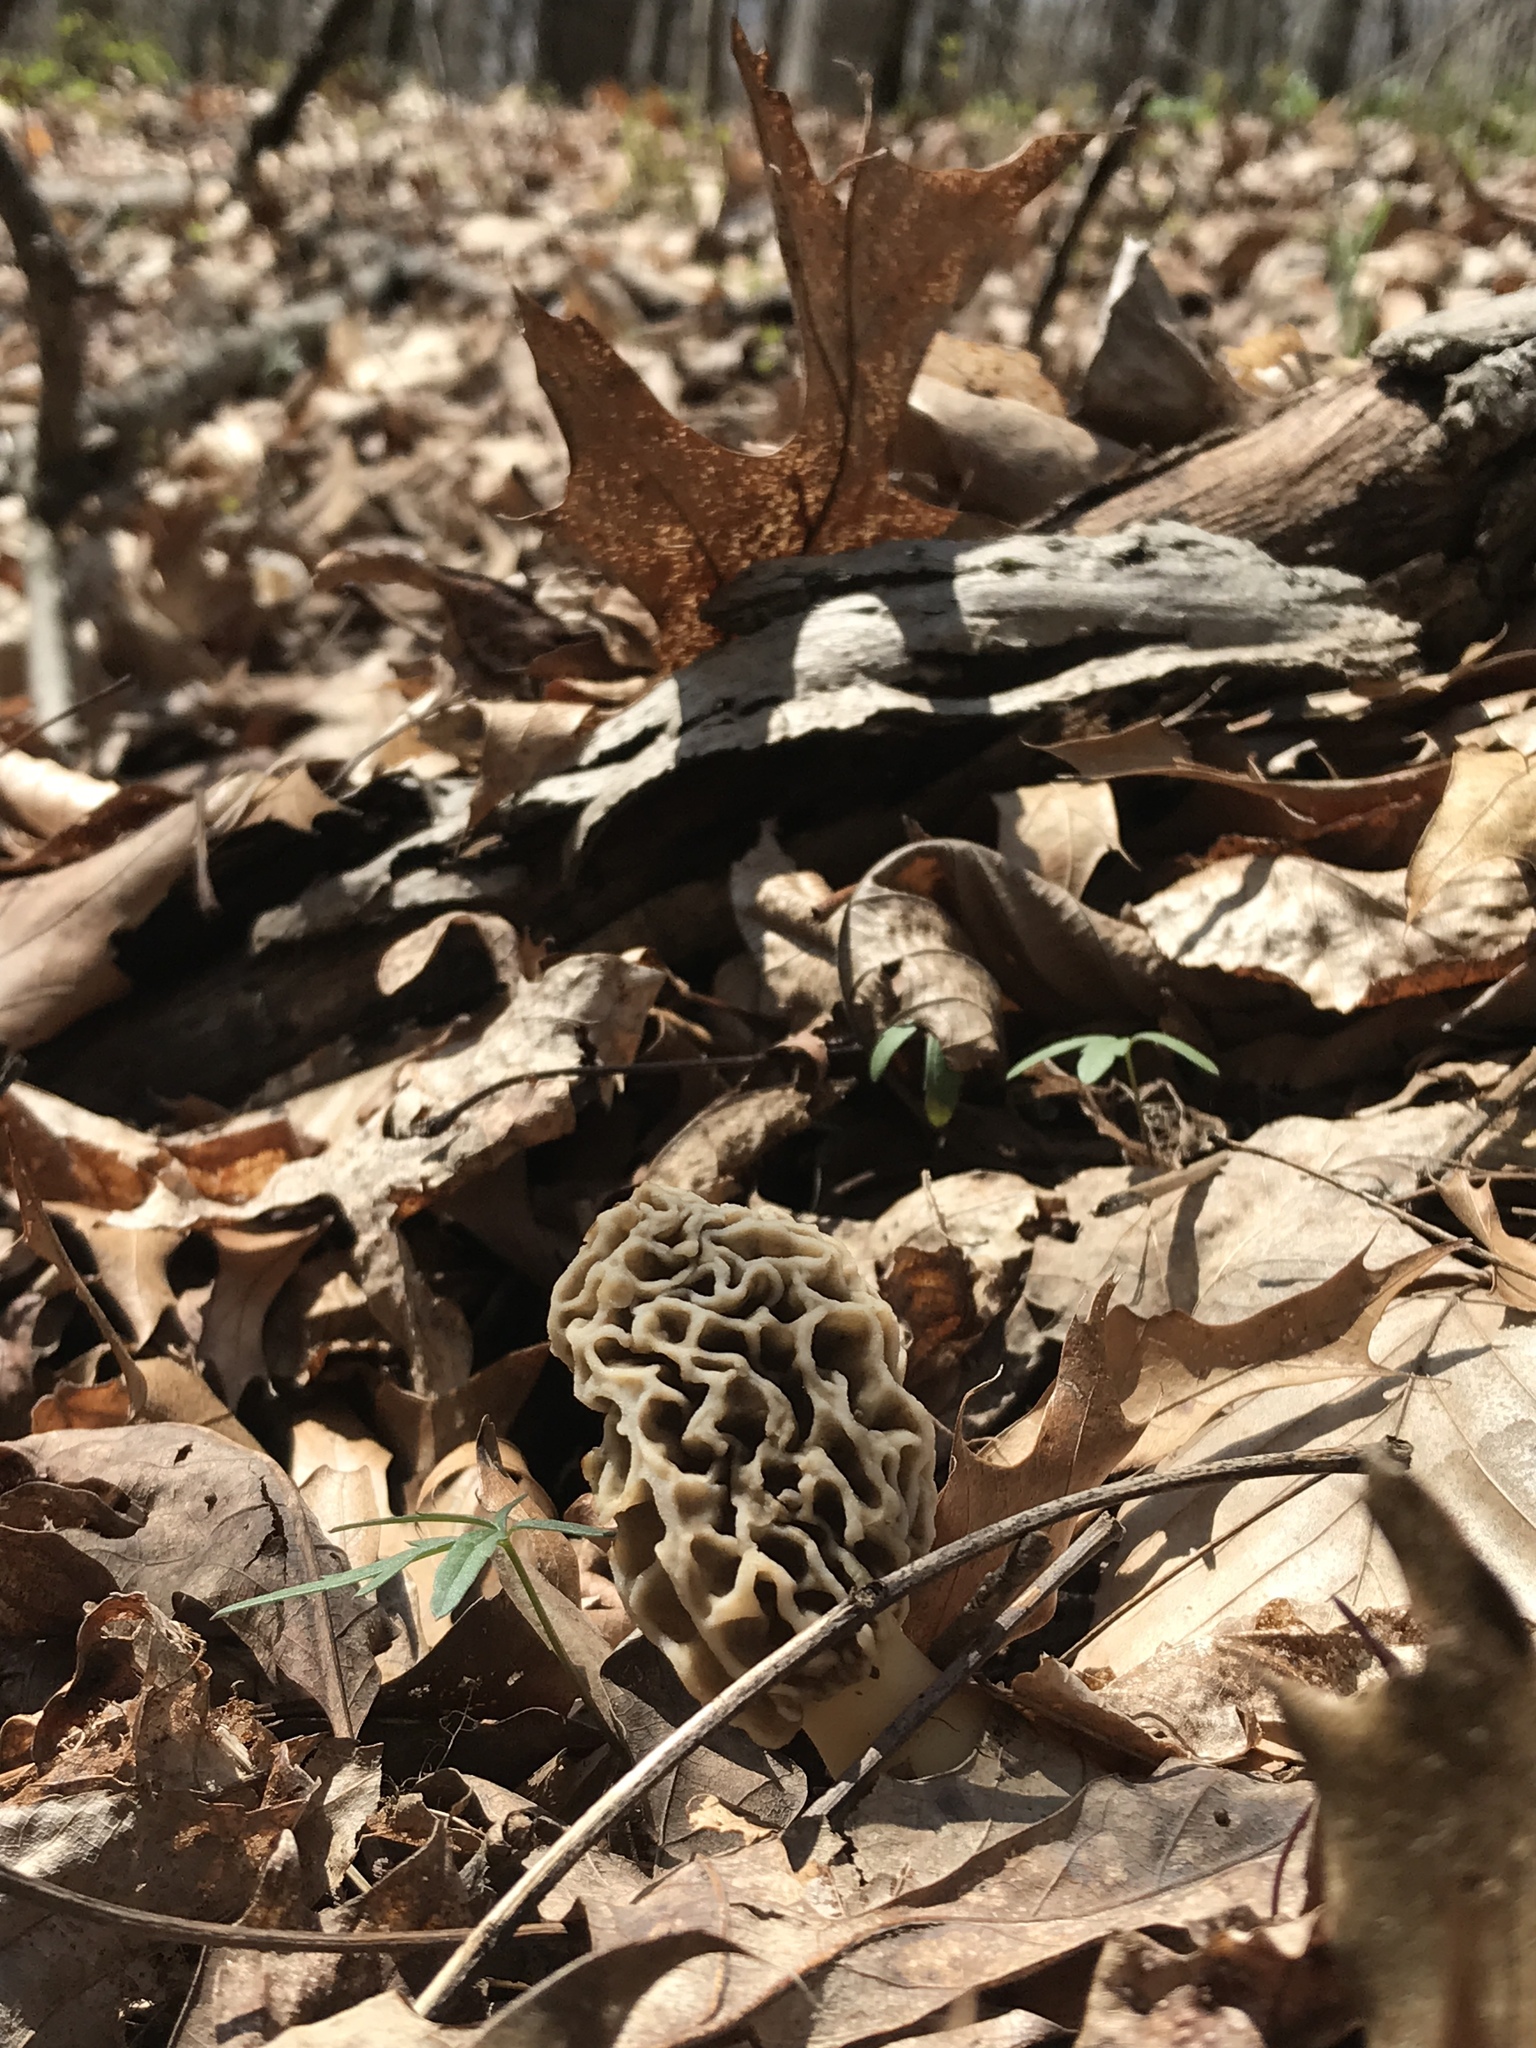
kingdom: Fungi
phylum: Ascomycota
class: Pezizomycetes
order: Pezizales
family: Morchellaceae
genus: Morchella
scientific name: Morchella americana
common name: White morel
